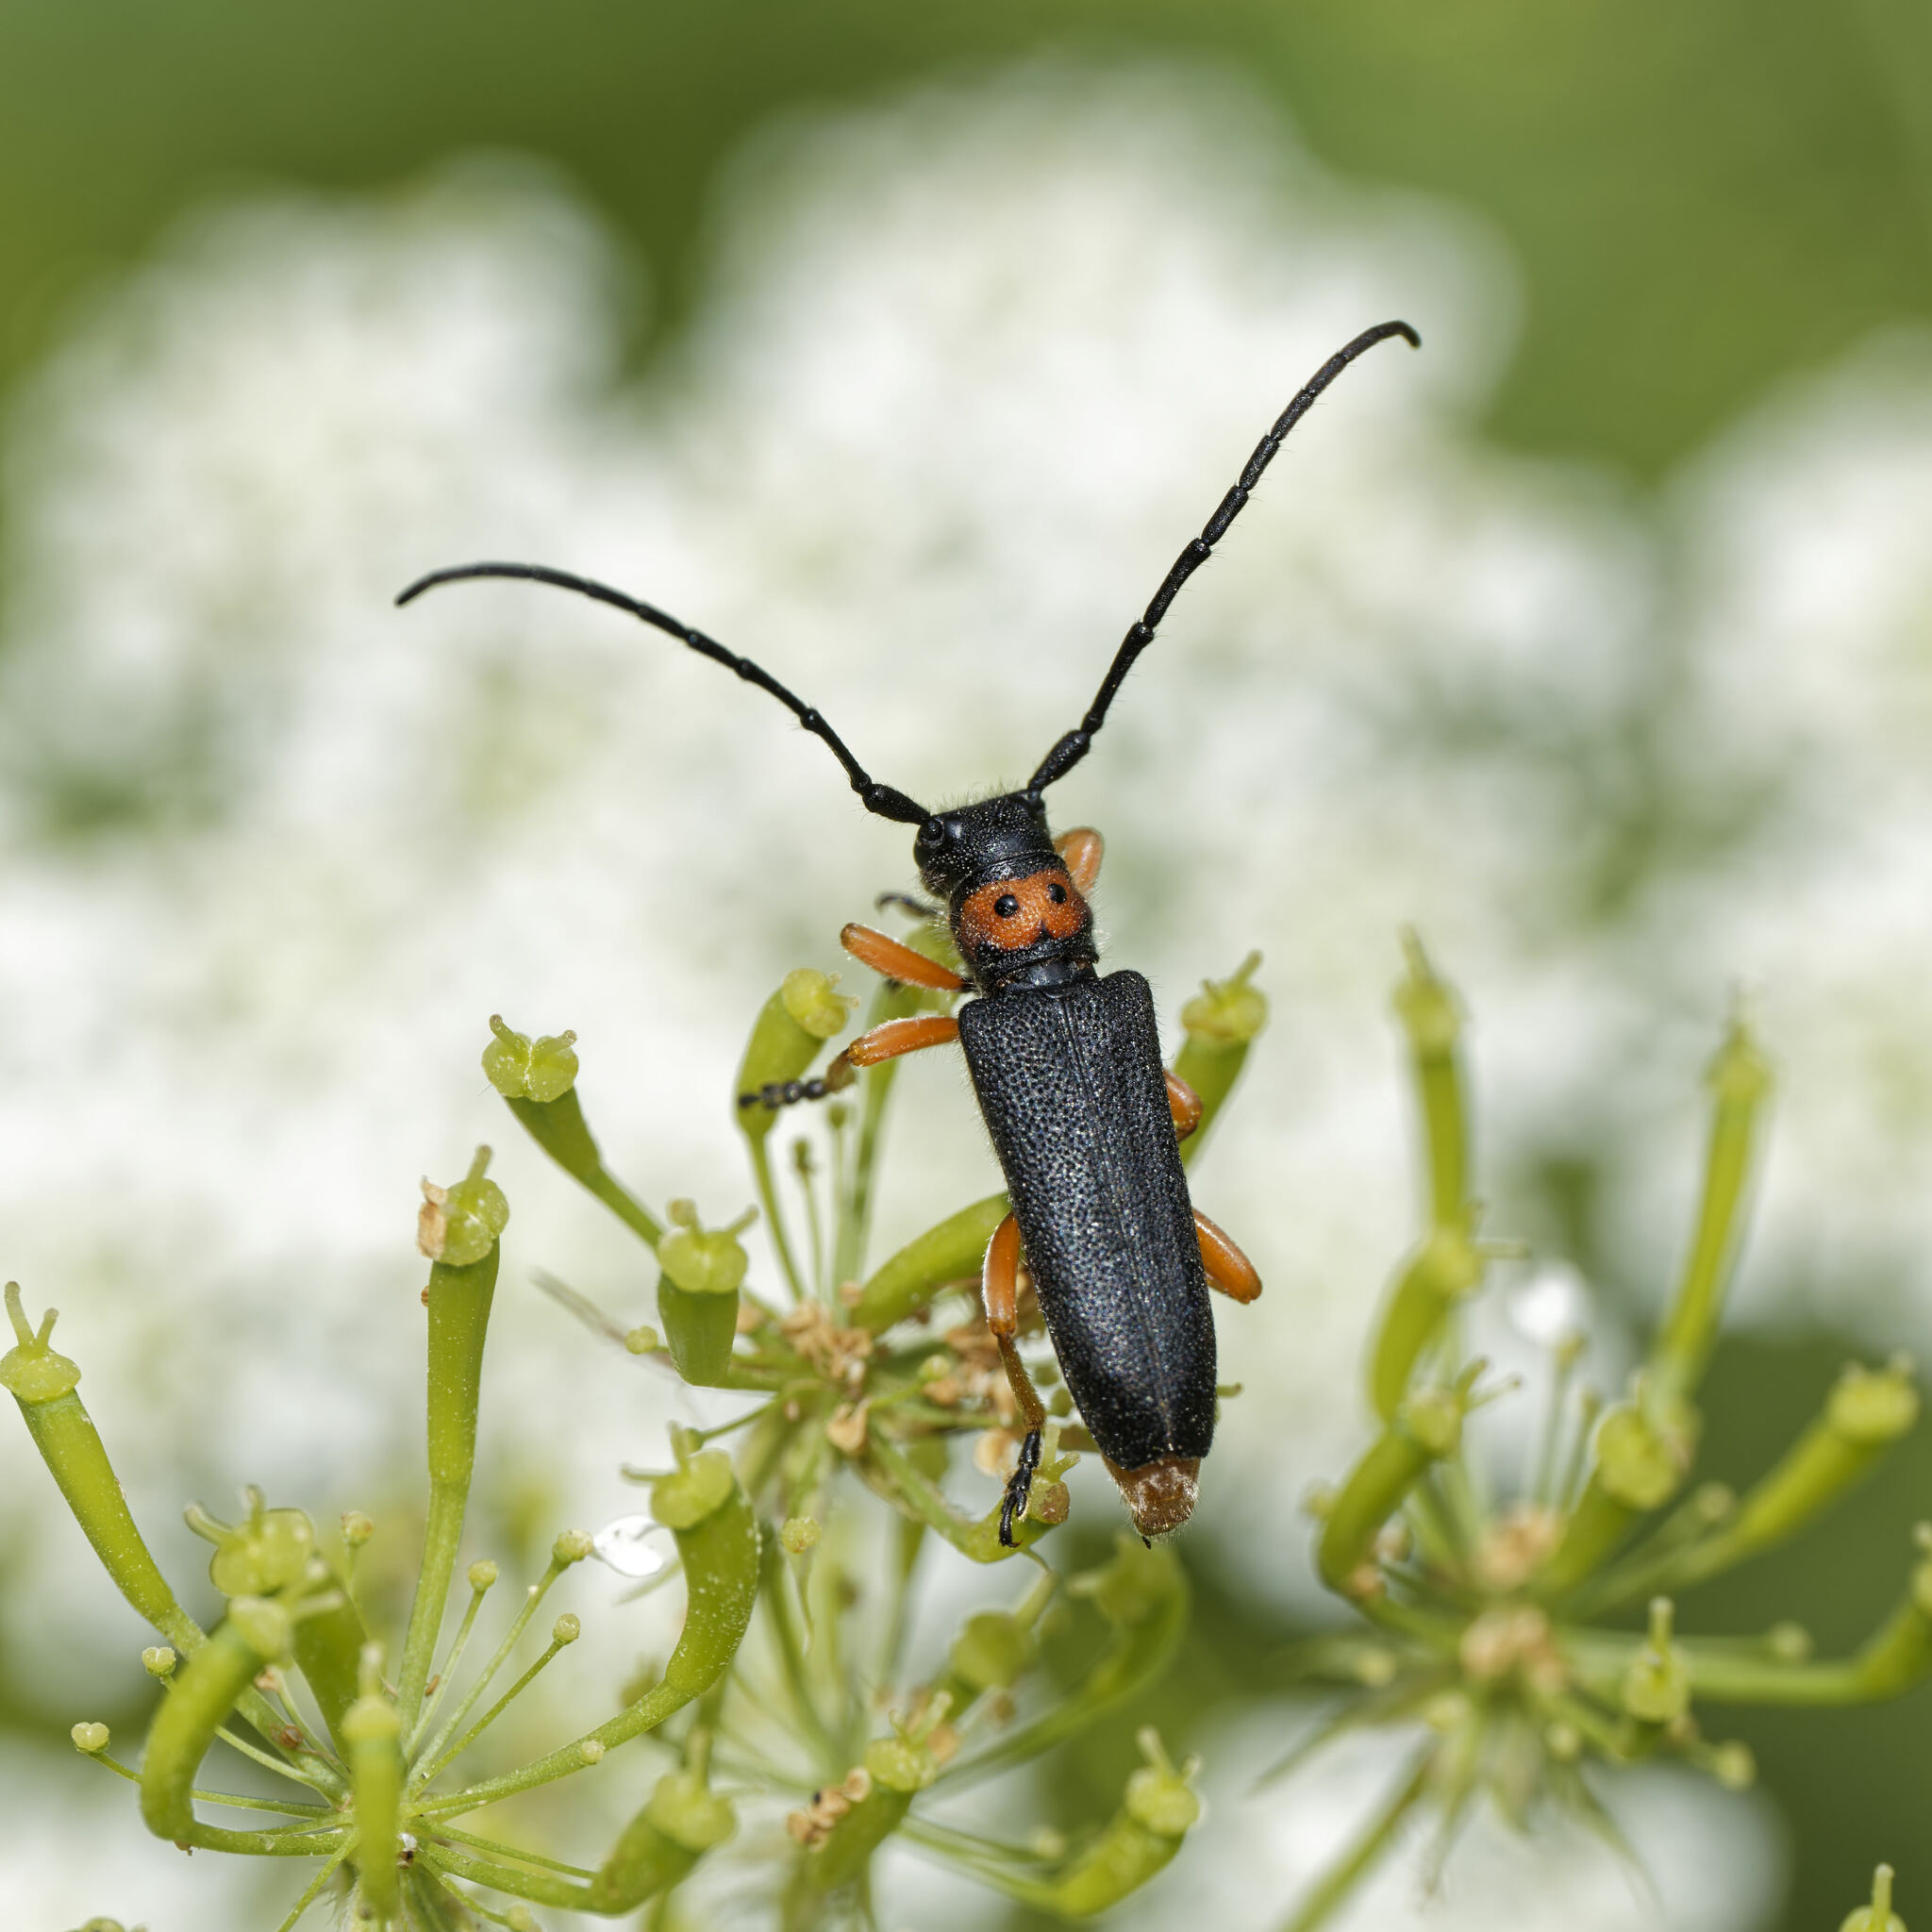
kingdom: Animalia
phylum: Arthropoda
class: Insecta
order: Coleoptera
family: Cerambycidae
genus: Phytoecia
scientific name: Phytoecia affinis
